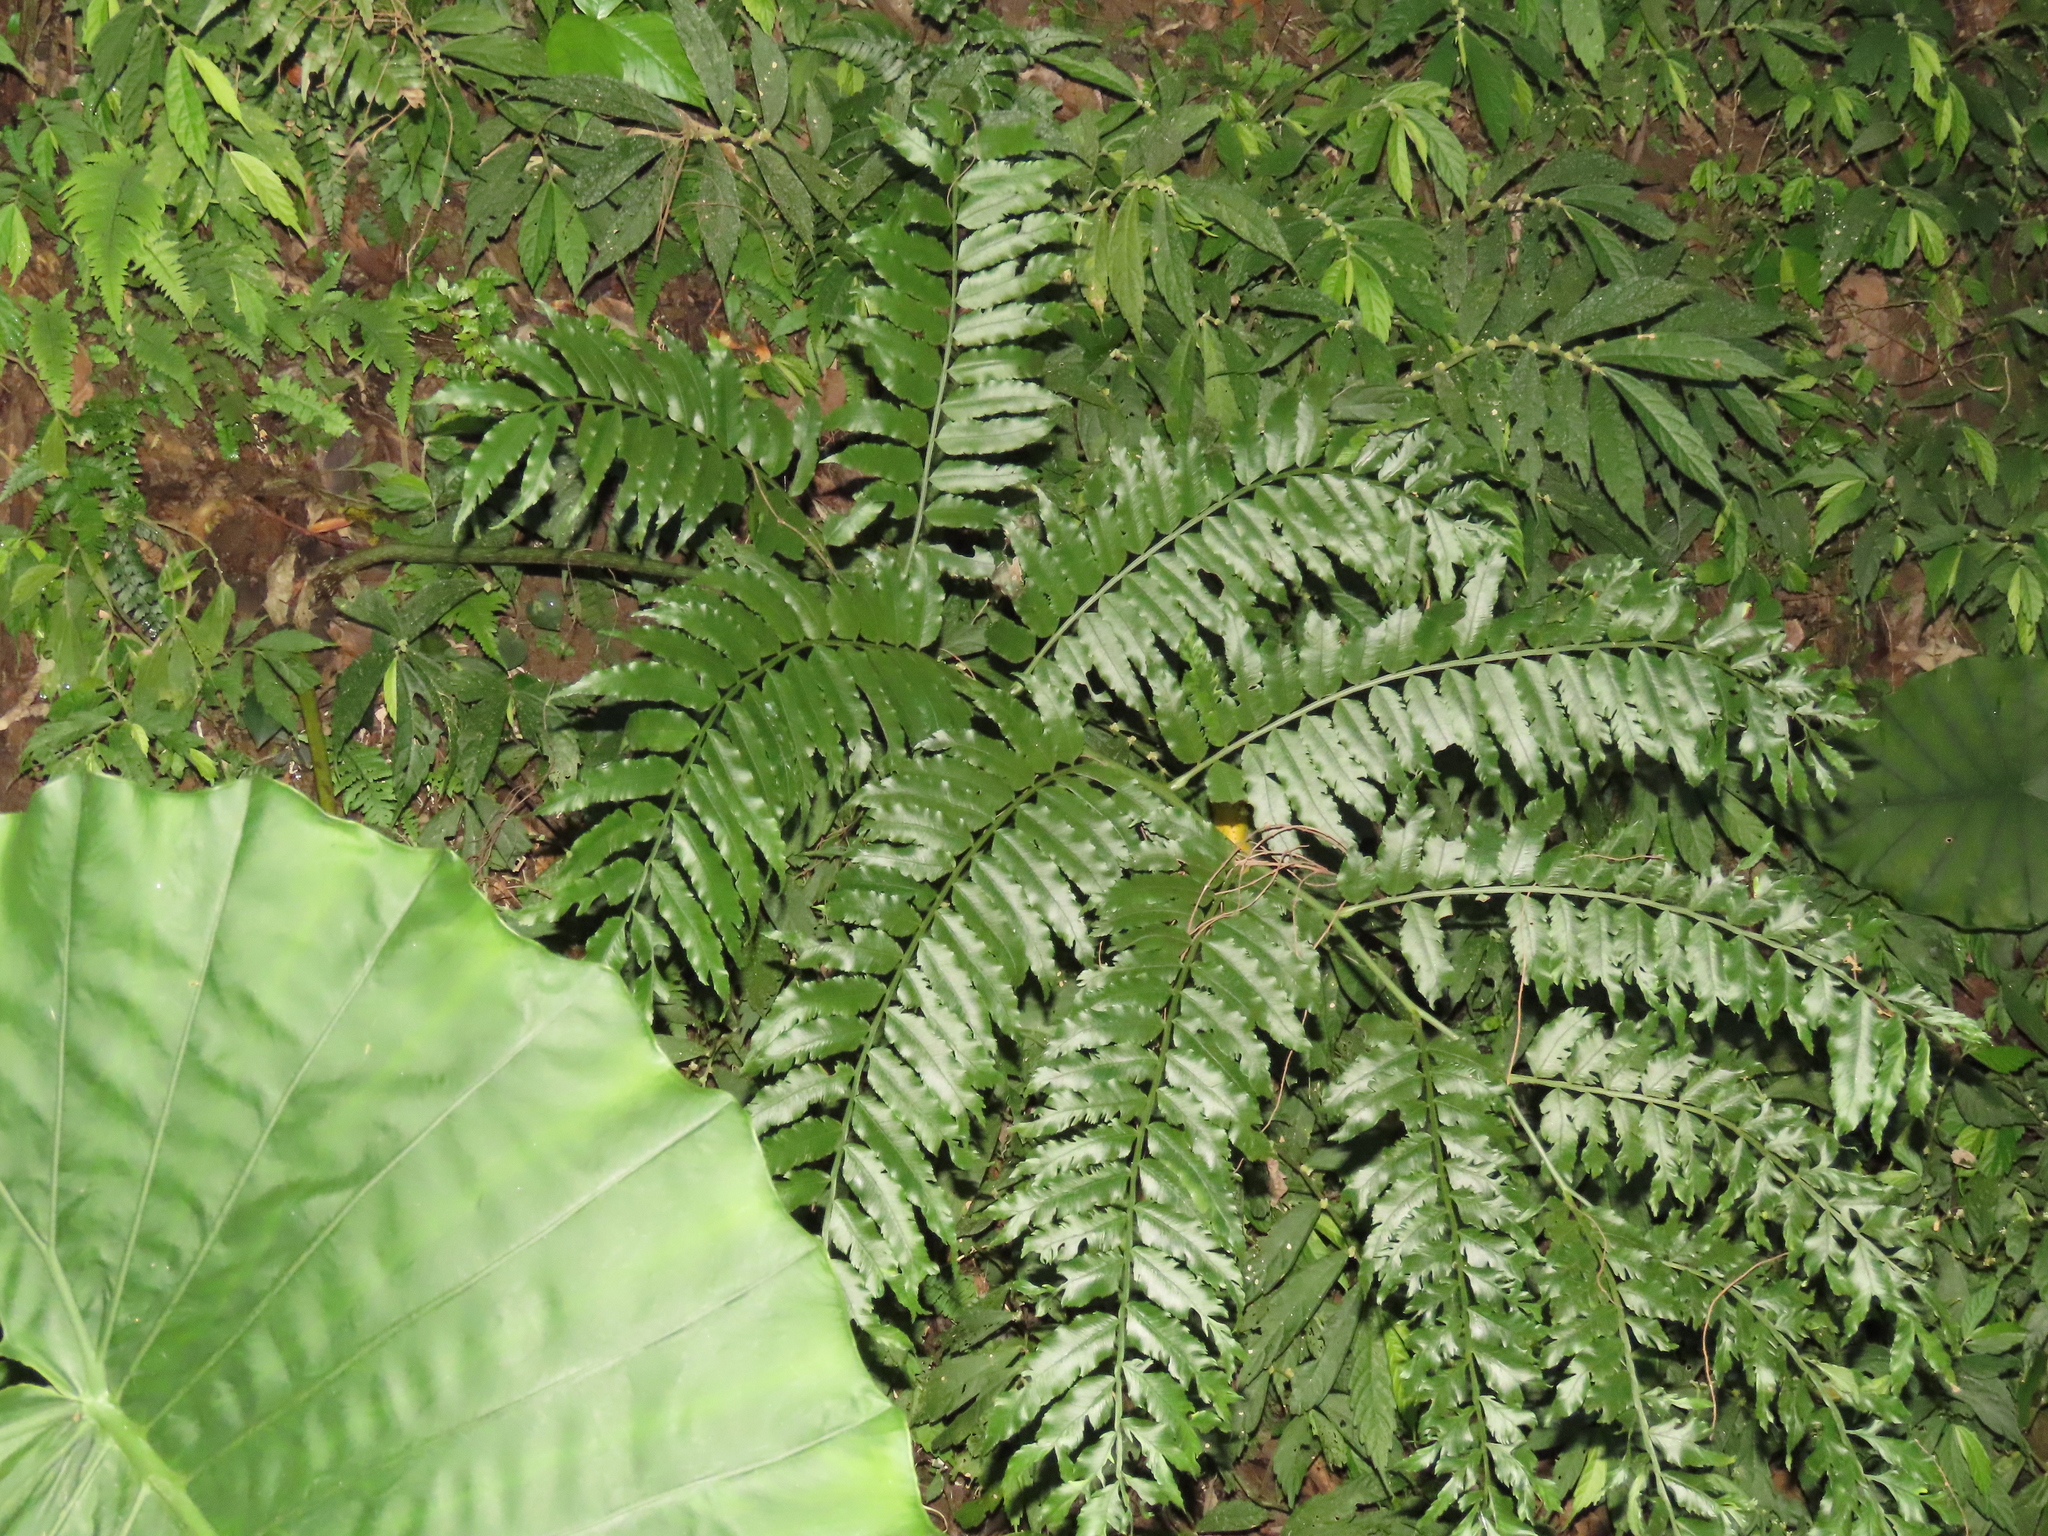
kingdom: Plantae
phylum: Tracheophyta
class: Polypodiopsida
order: Marattiales
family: Marattiaceae
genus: Angiopteris
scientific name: Angiopteris lygodiifolia
